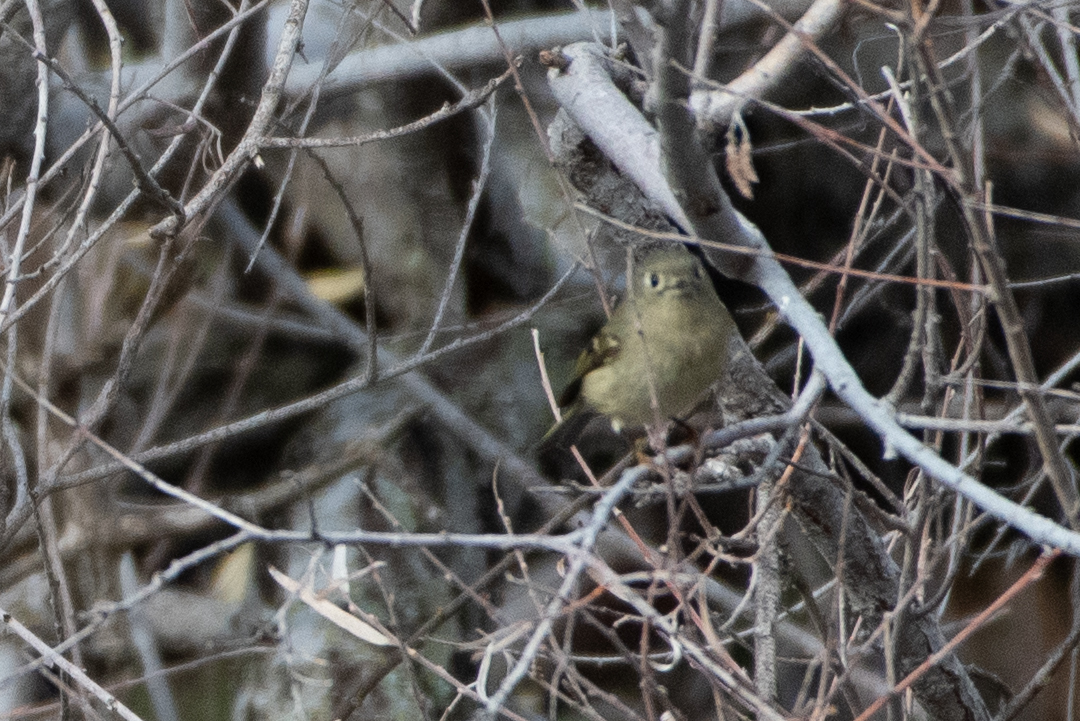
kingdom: Animalia
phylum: Chordata
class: Aves
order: Passeriformes
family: Regulidae
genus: Regulus
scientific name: Regulus calendula
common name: Ruby-crowned kinglet
